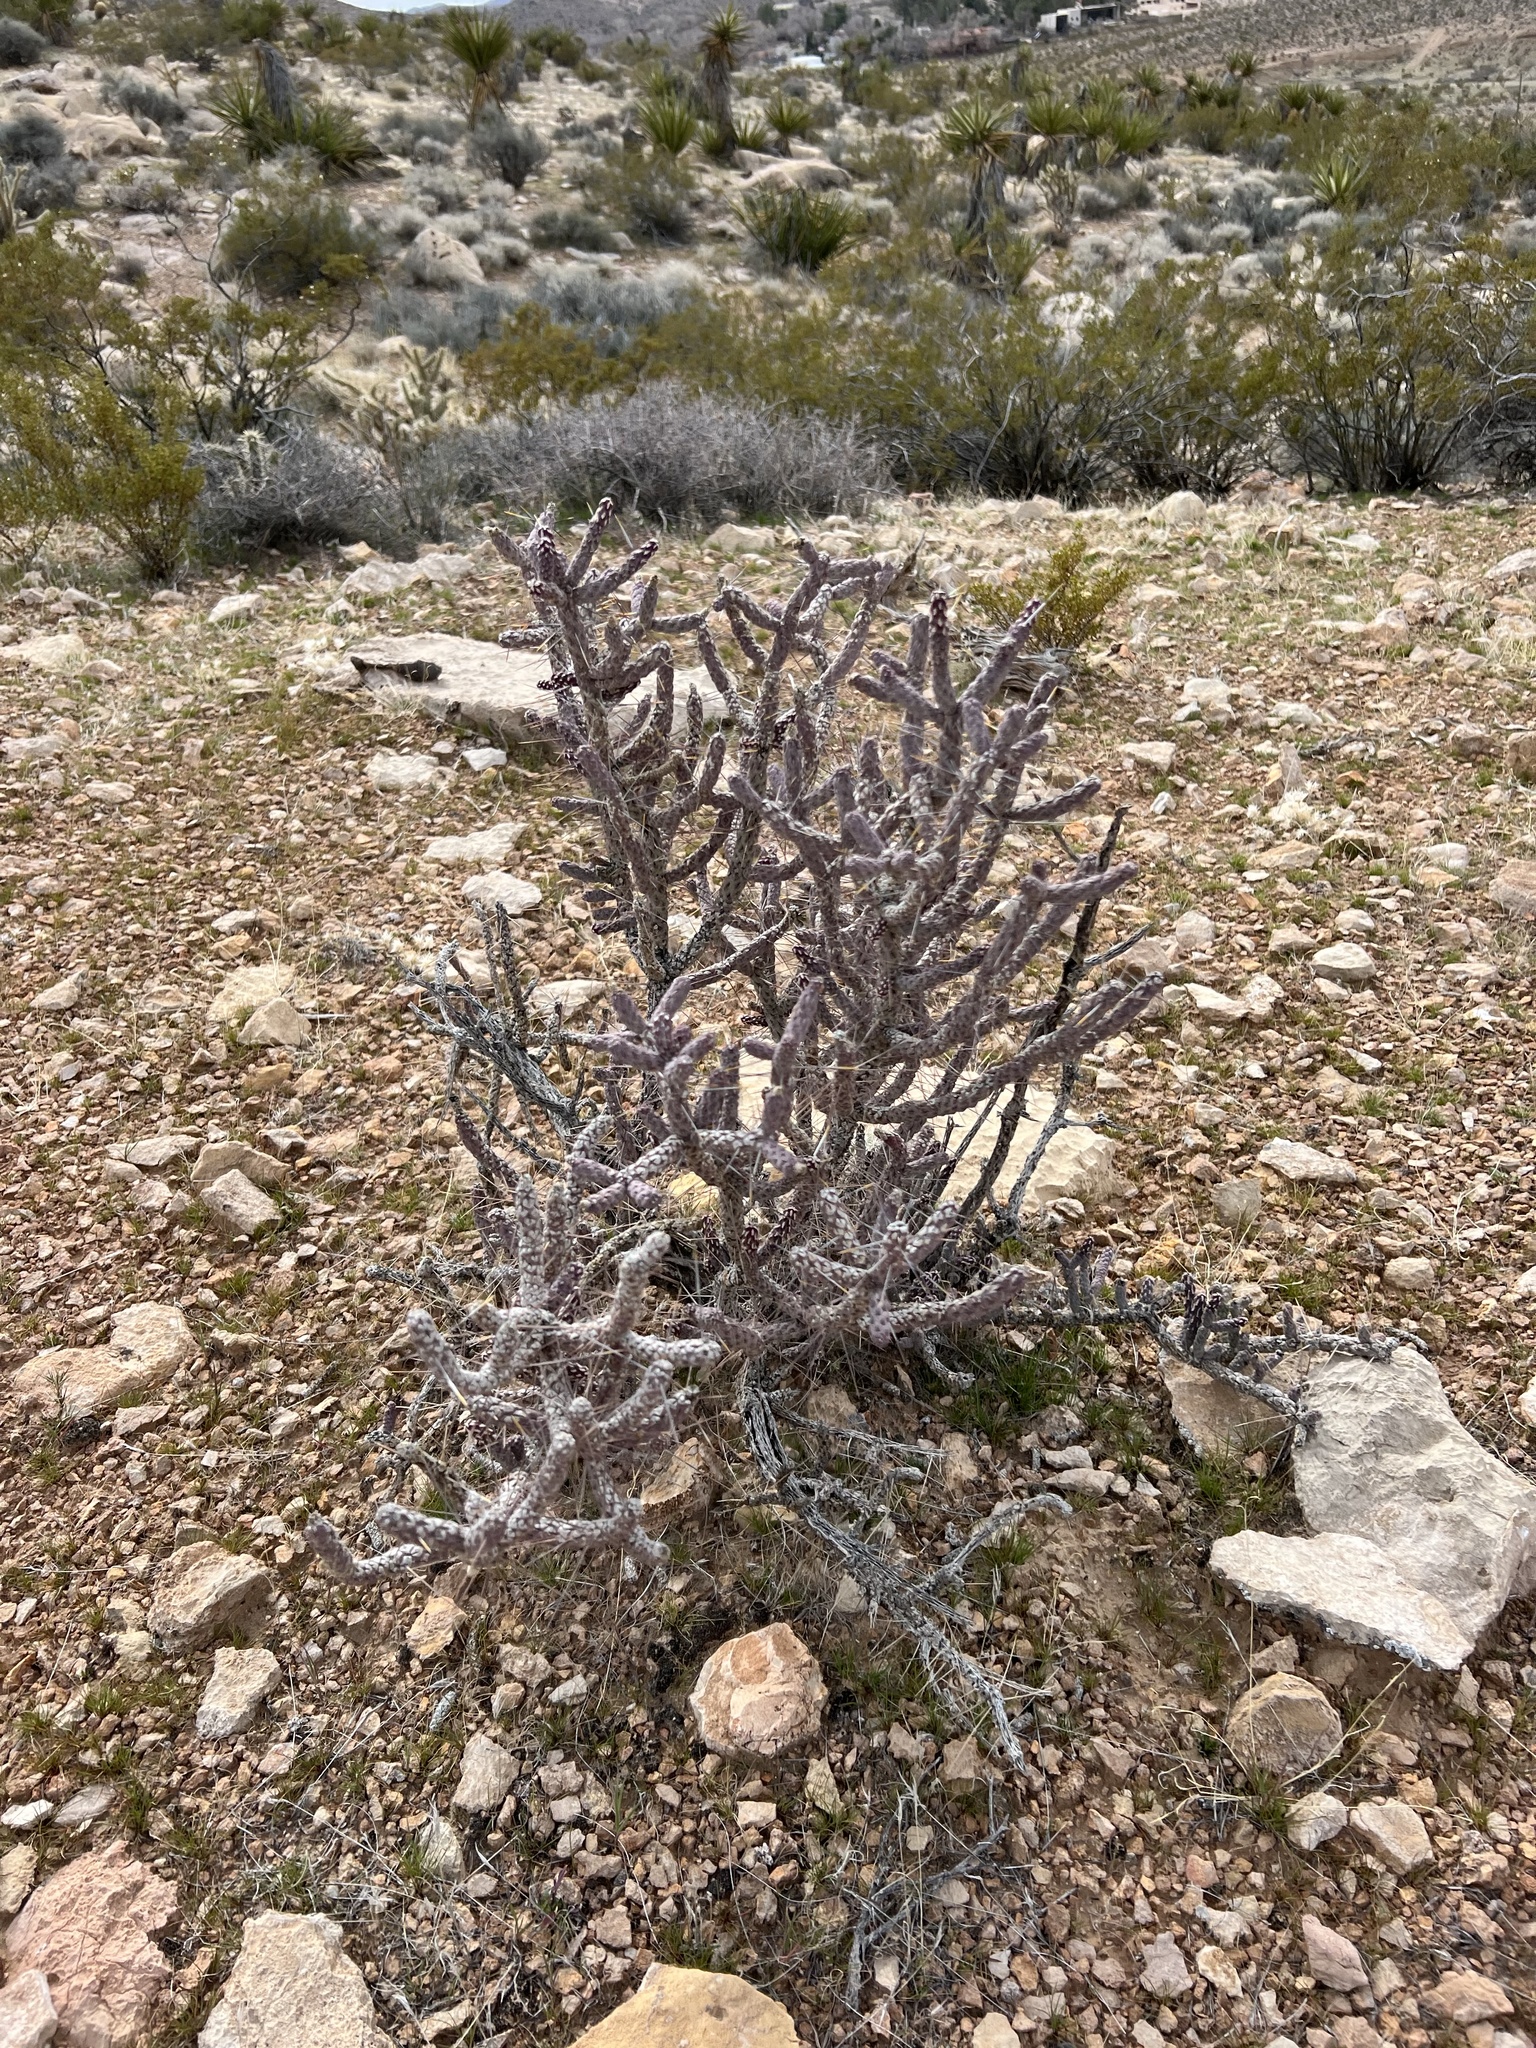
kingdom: Plantae
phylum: Tracheophyta
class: Magnoliopsida
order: Caryophyllales
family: Cactaceae
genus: Cylindropuntia
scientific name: Cylindropuntia ramosissima
